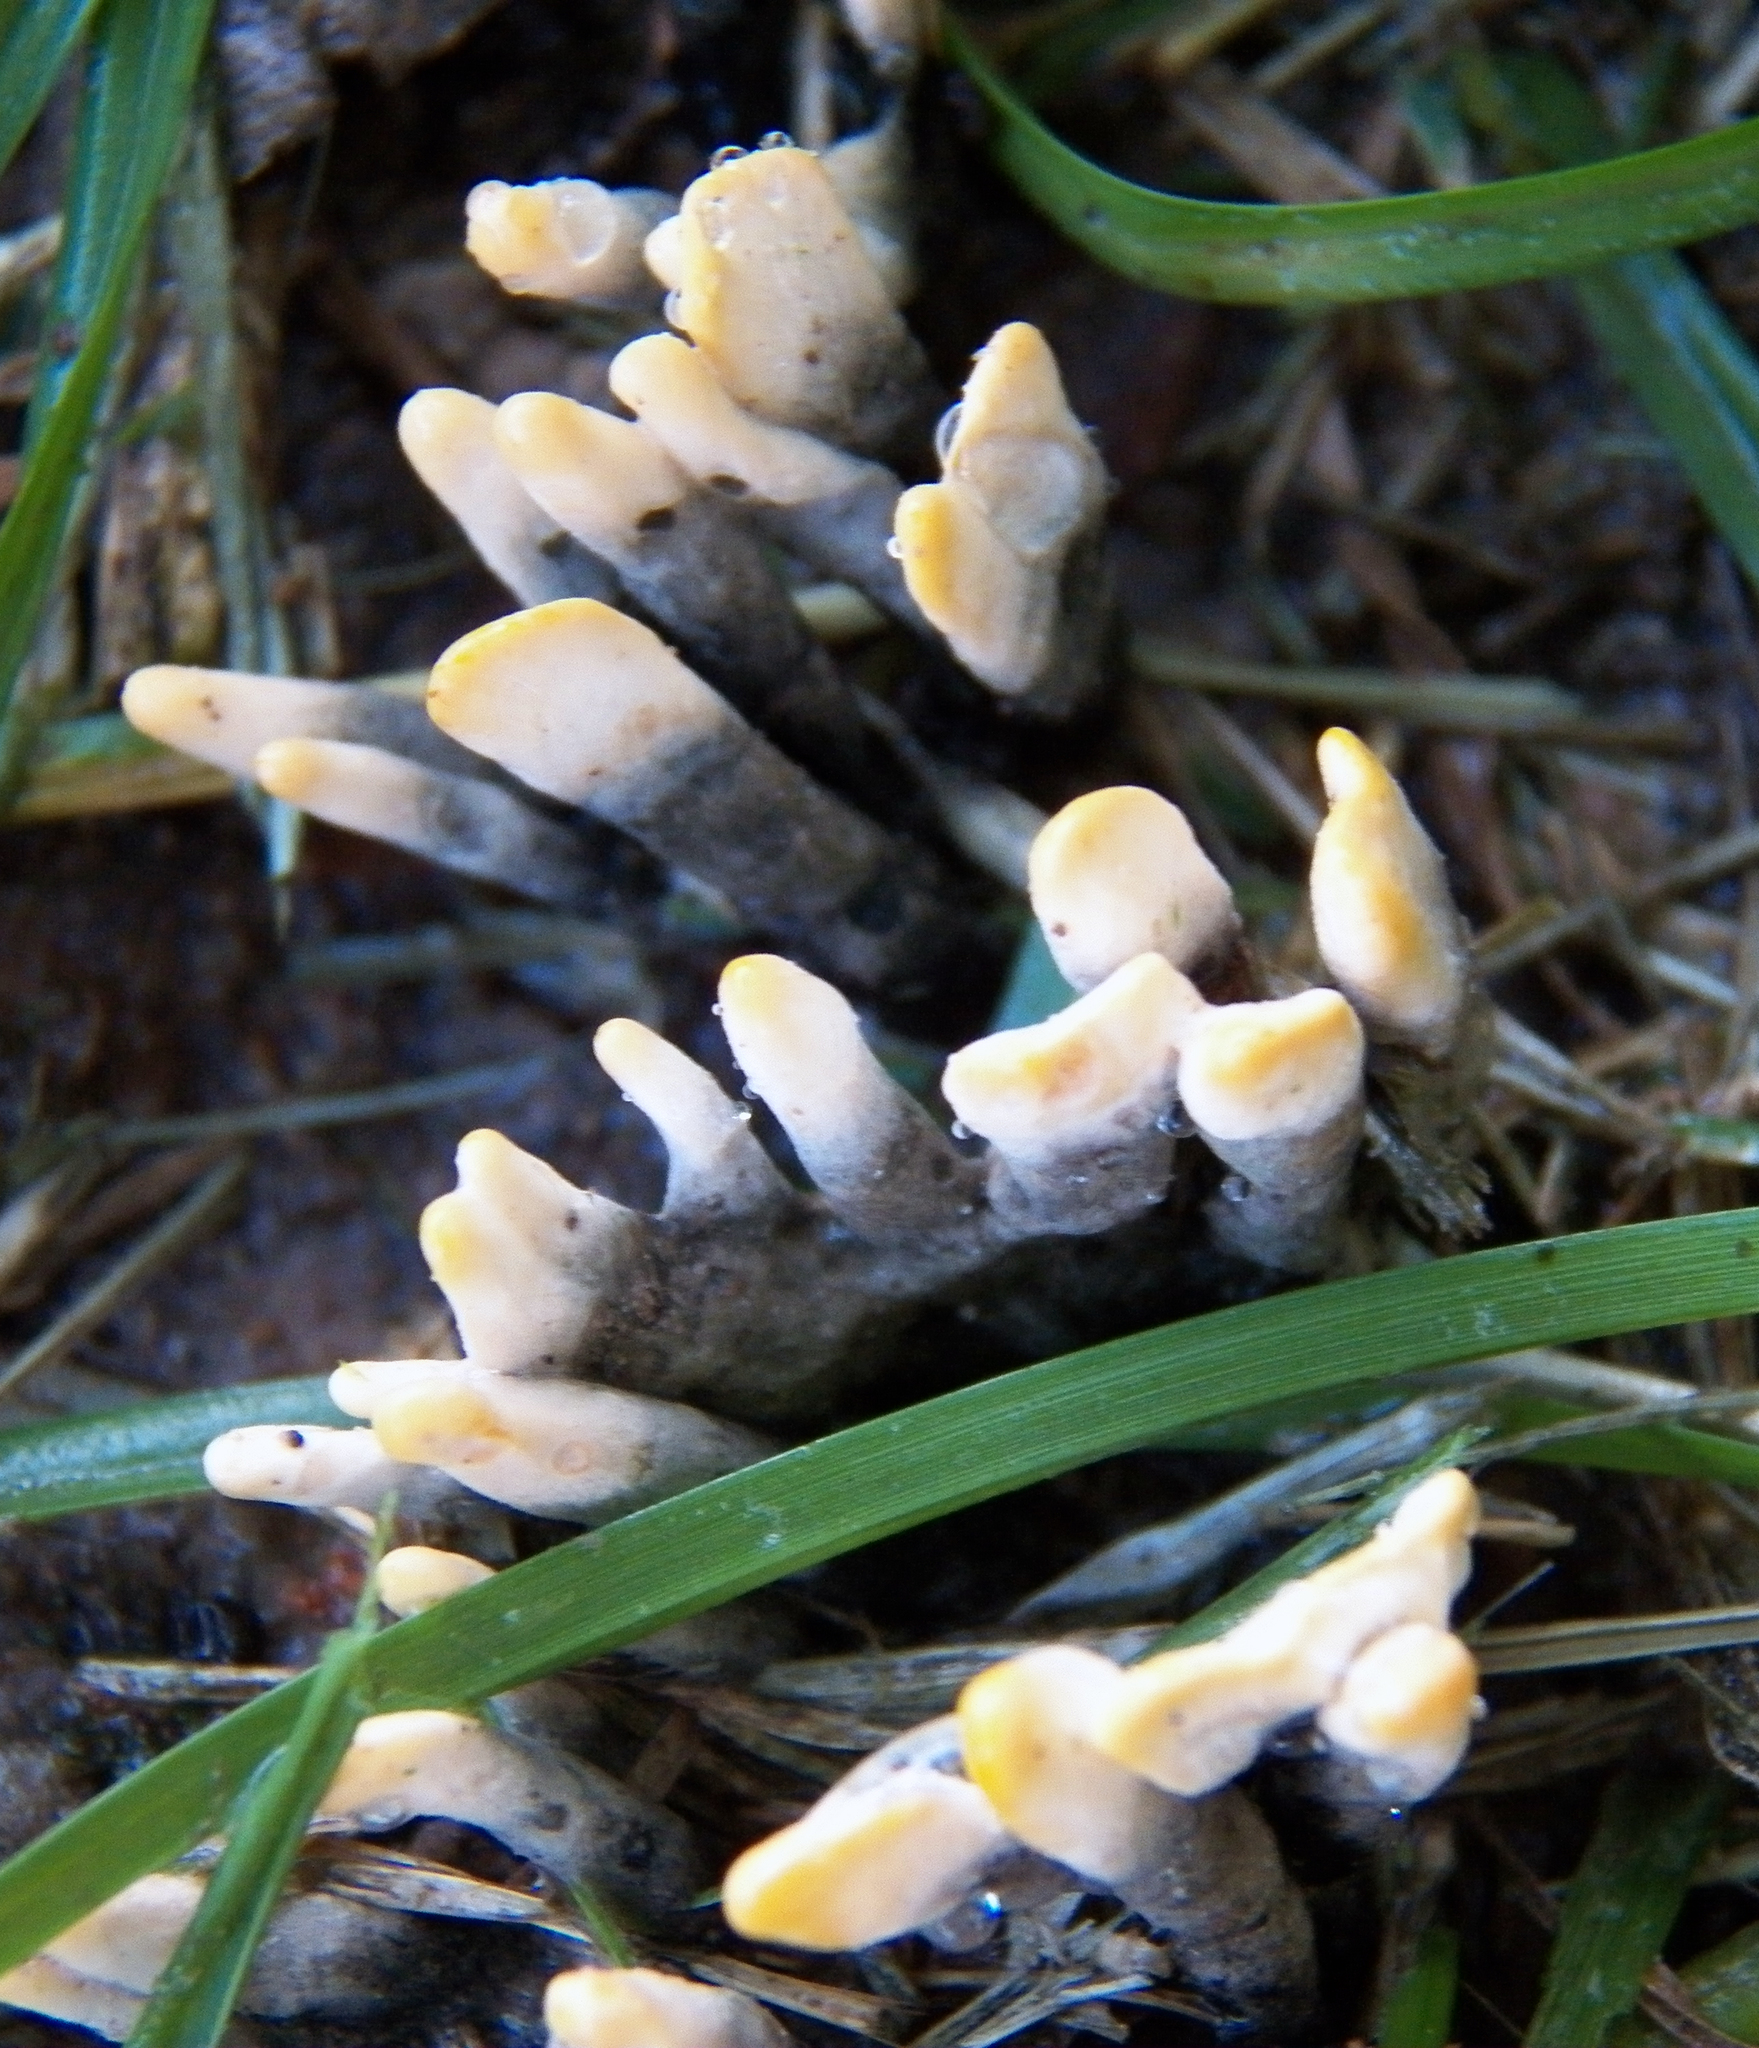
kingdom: Fungi
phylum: Ascomycota
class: Sordariomycetes
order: Xylariales
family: Xylariaceae
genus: Xylaria
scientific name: Xylaria hypoxylon
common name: Candle-snuff fungus
